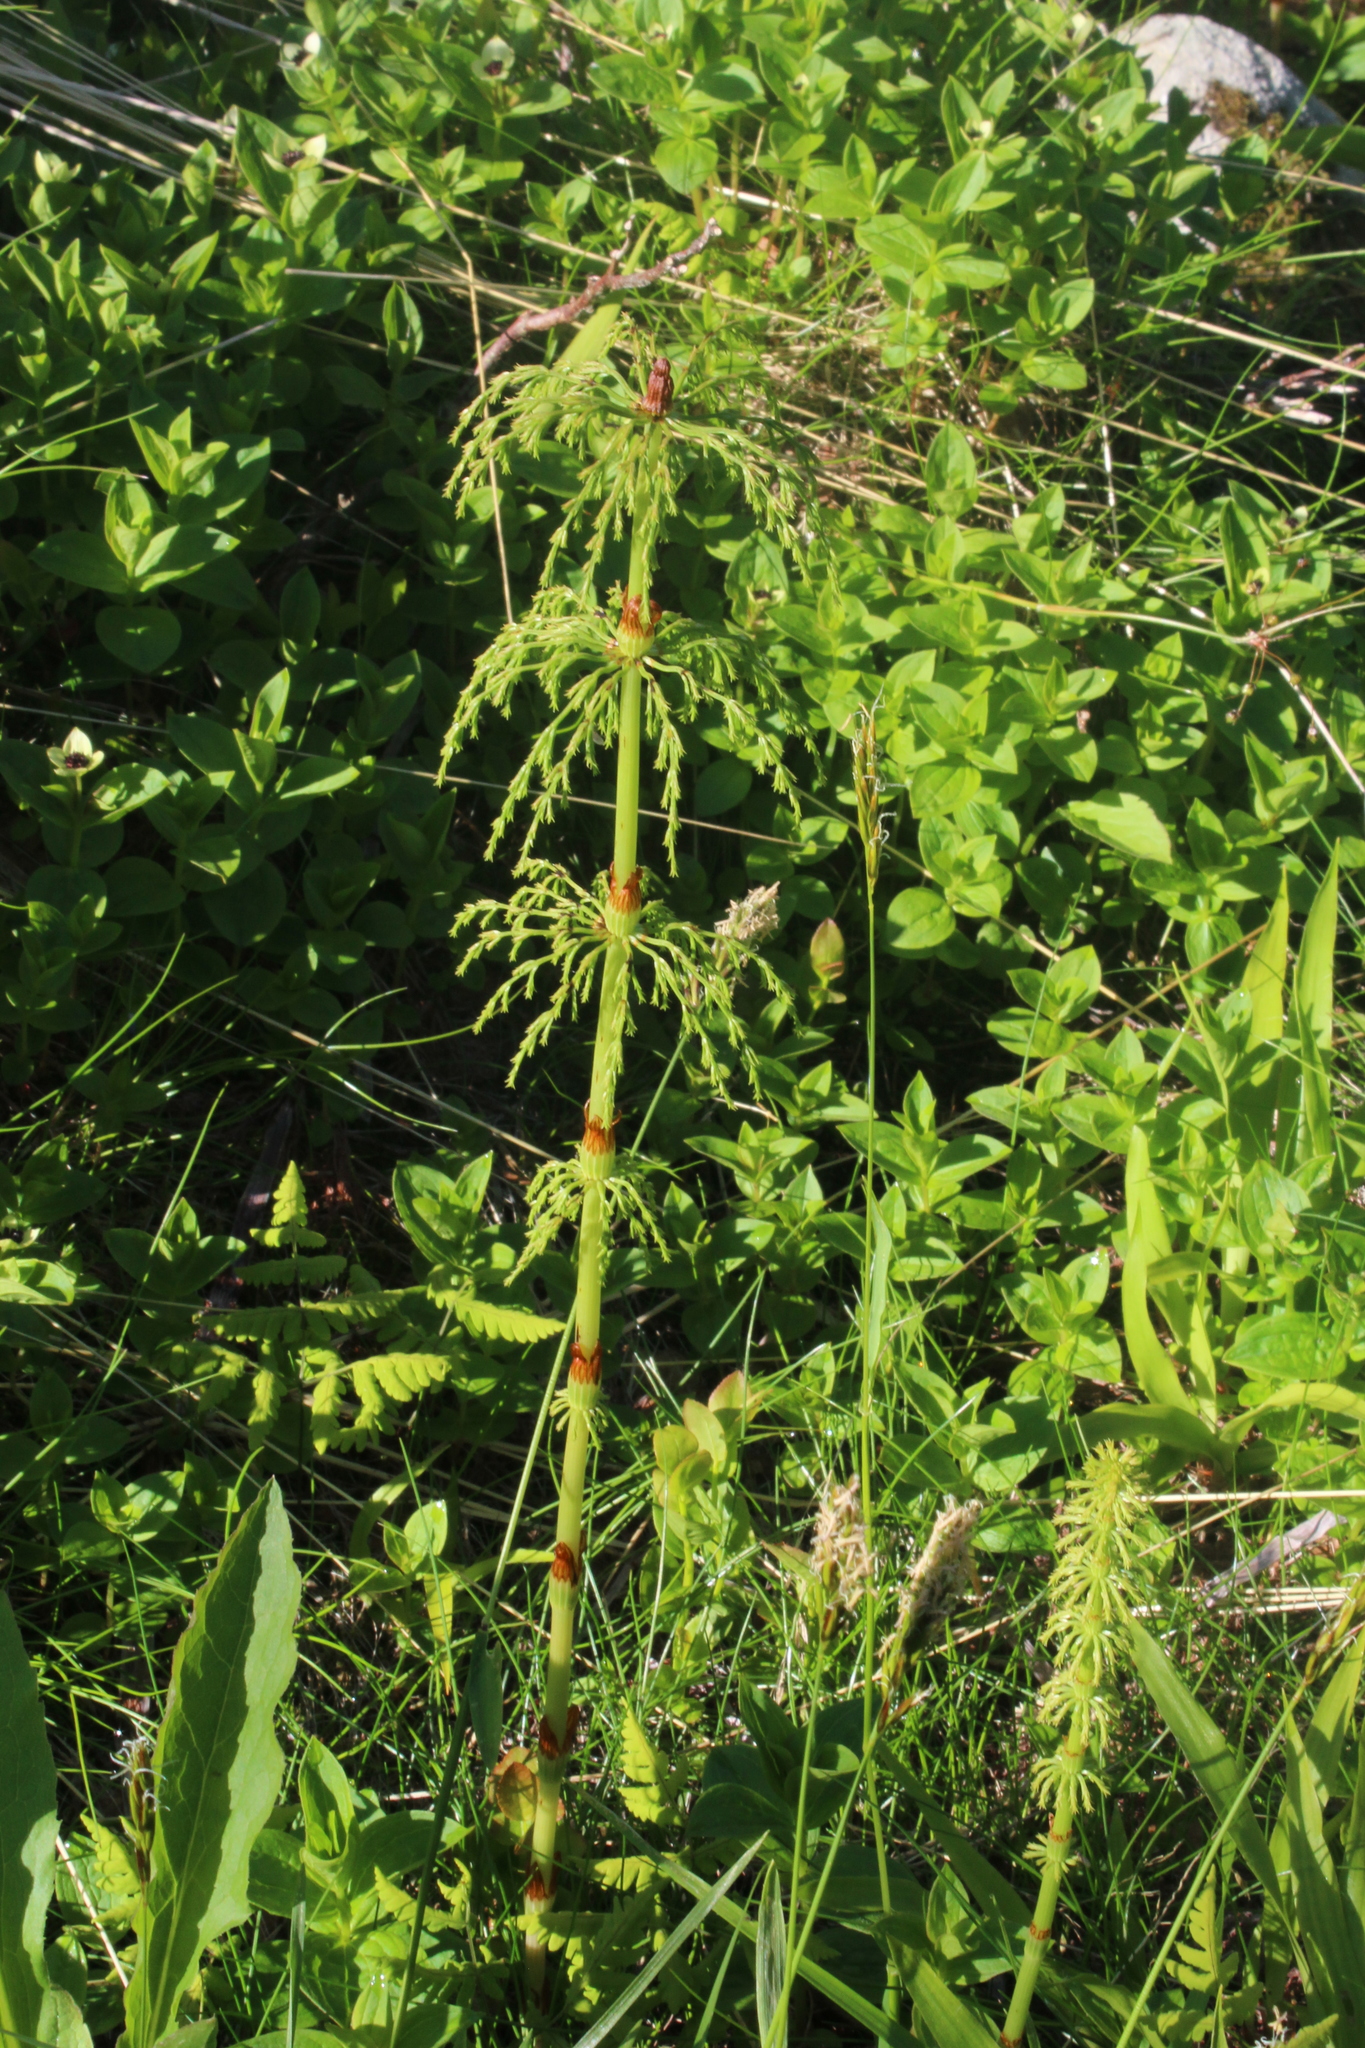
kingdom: Plantae
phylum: Tracheophyta
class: Polypodiopsida
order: Equisetales
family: Equisetaceae
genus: Equisetum
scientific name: Equisetum sylvaticum
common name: Wood horsetail
